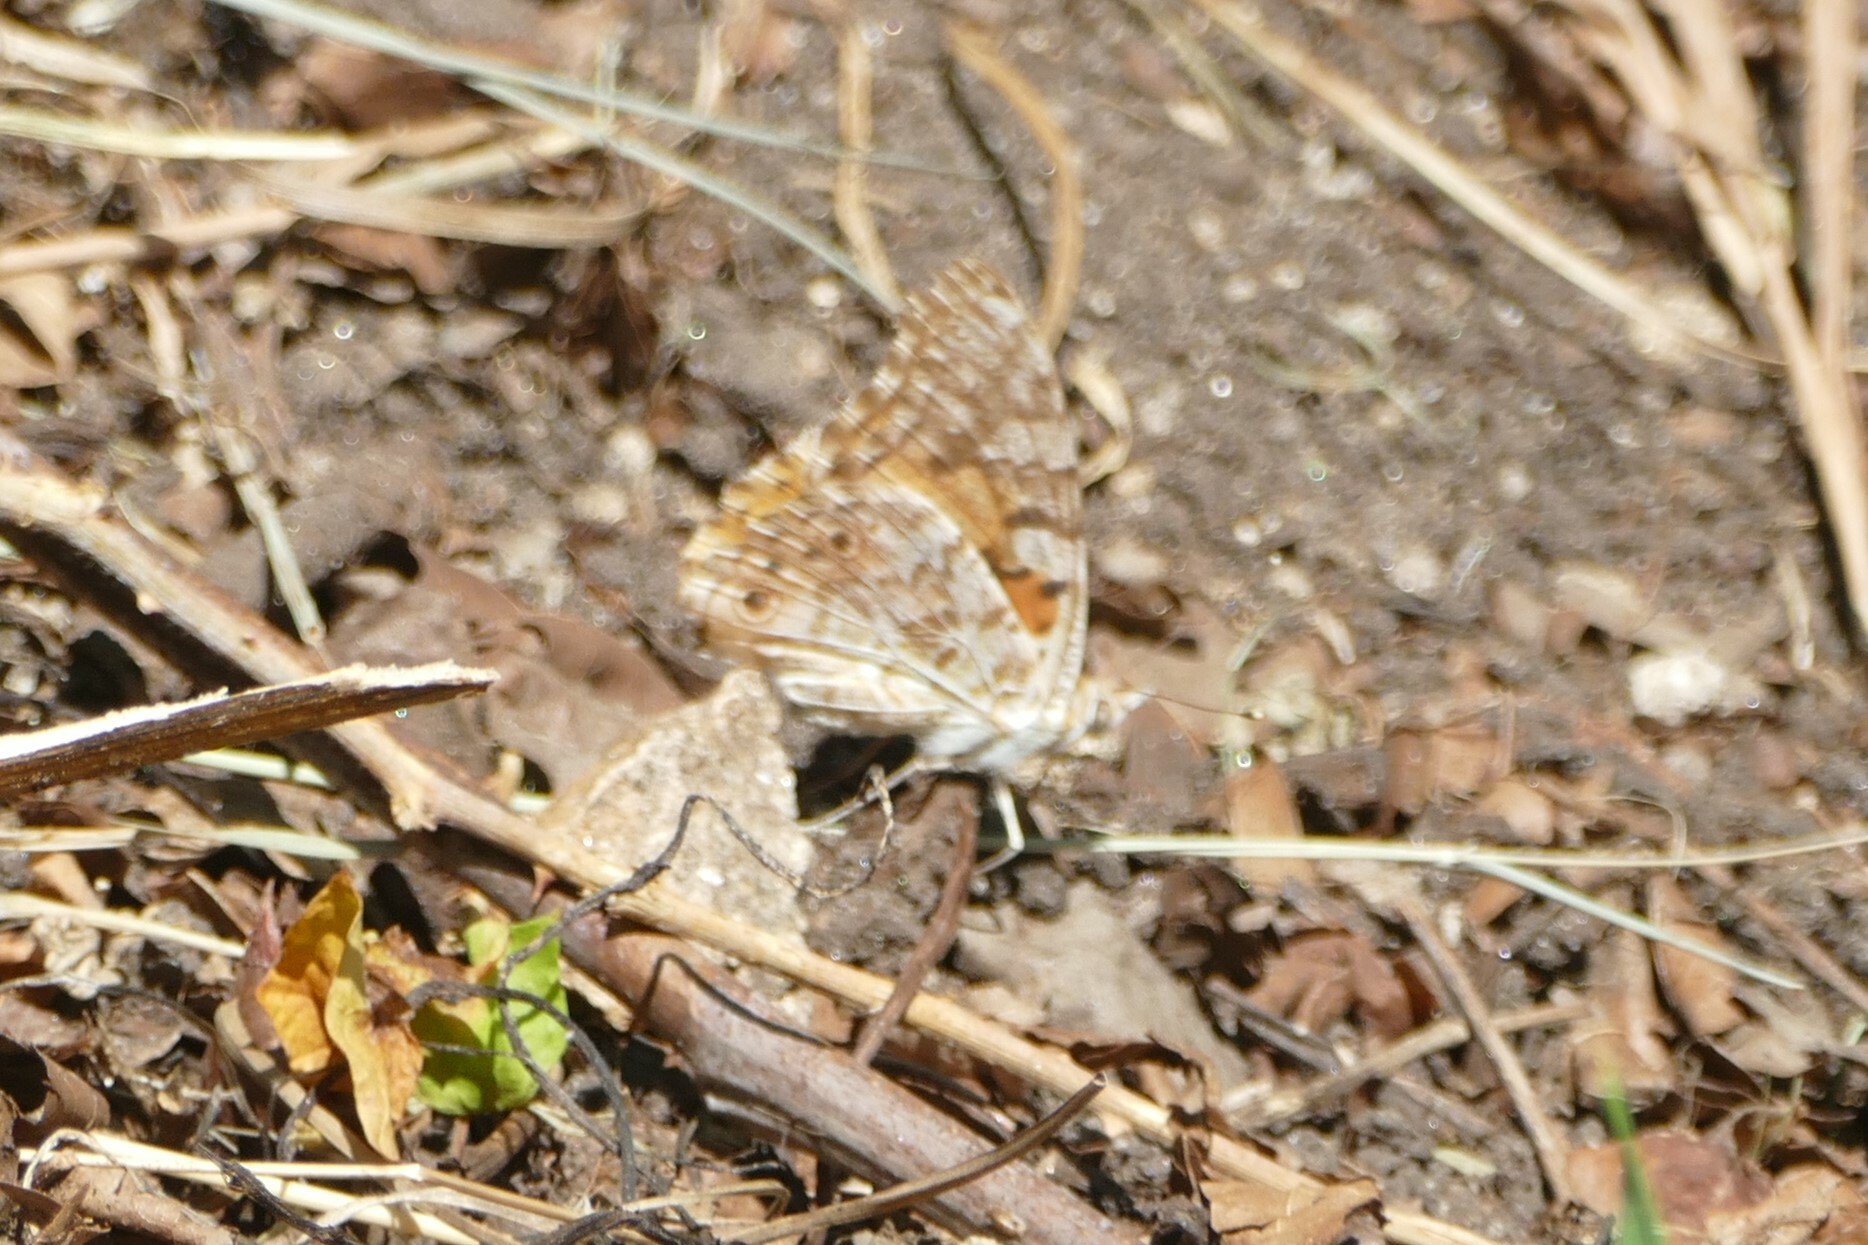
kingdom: Animalia
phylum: Arthropoda
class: Insecta
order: Lepidoptera
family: Nymphalidae
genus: Vanessa
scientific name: Vanessa cardui
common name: Painted lady
